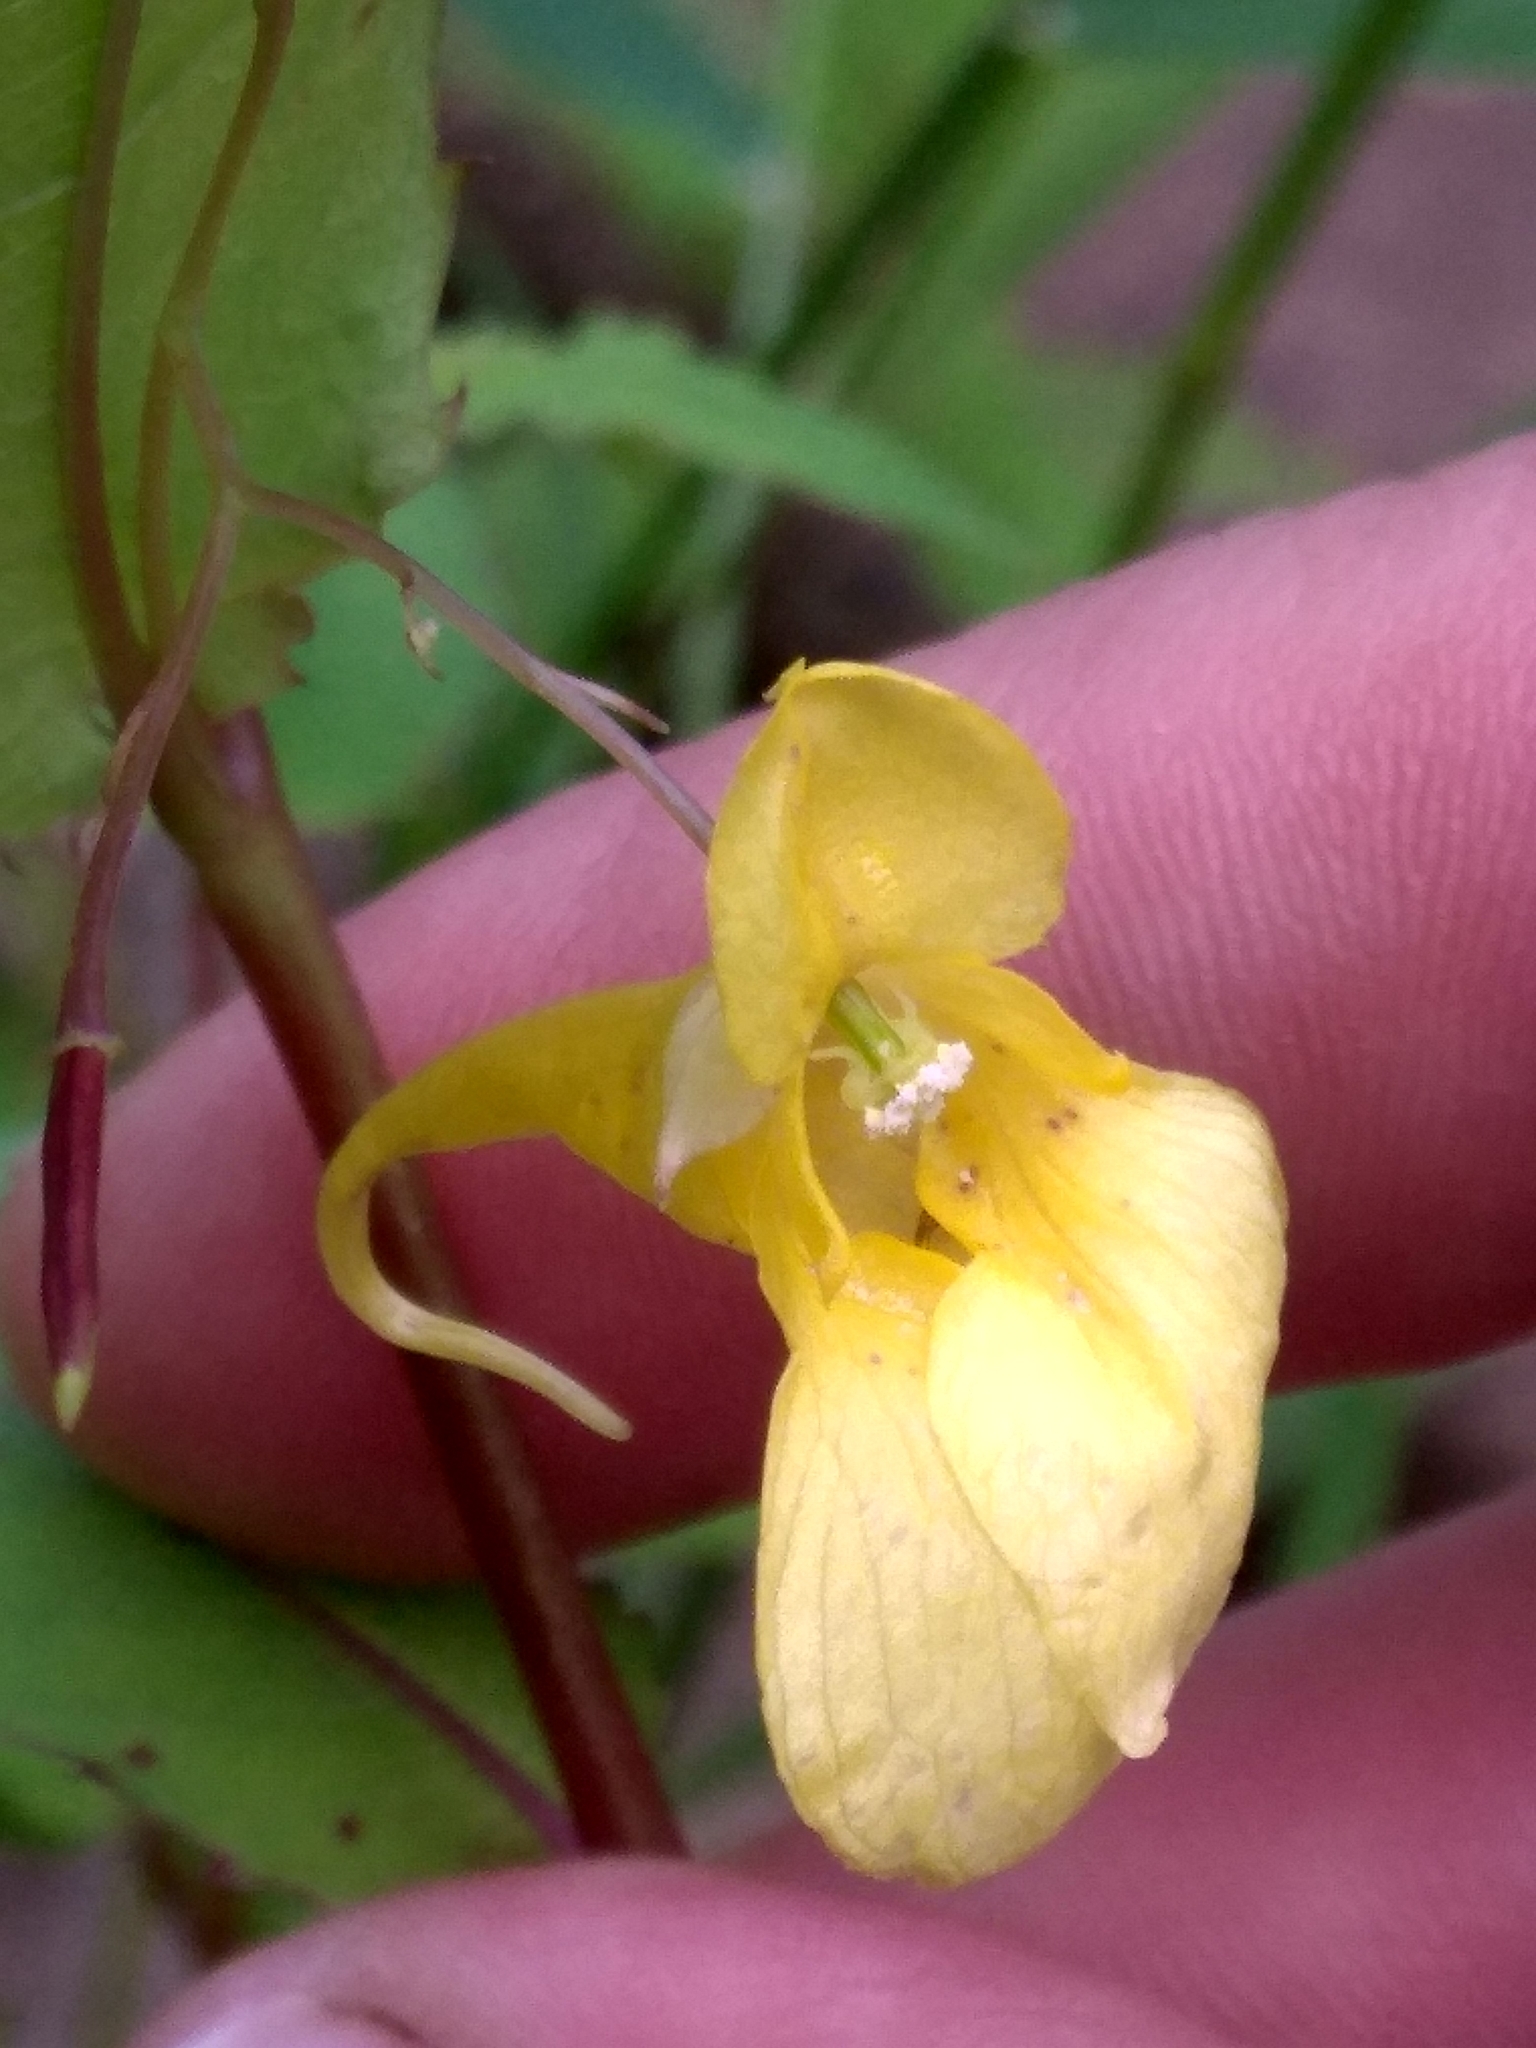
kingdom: Plantae
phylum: Tracheophyta
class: Magnoliopsida
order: Ericales
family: Balsaminaceae
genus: Impatiens
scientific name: Impatiens noli-tangere
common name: Touch-me-not balsam
